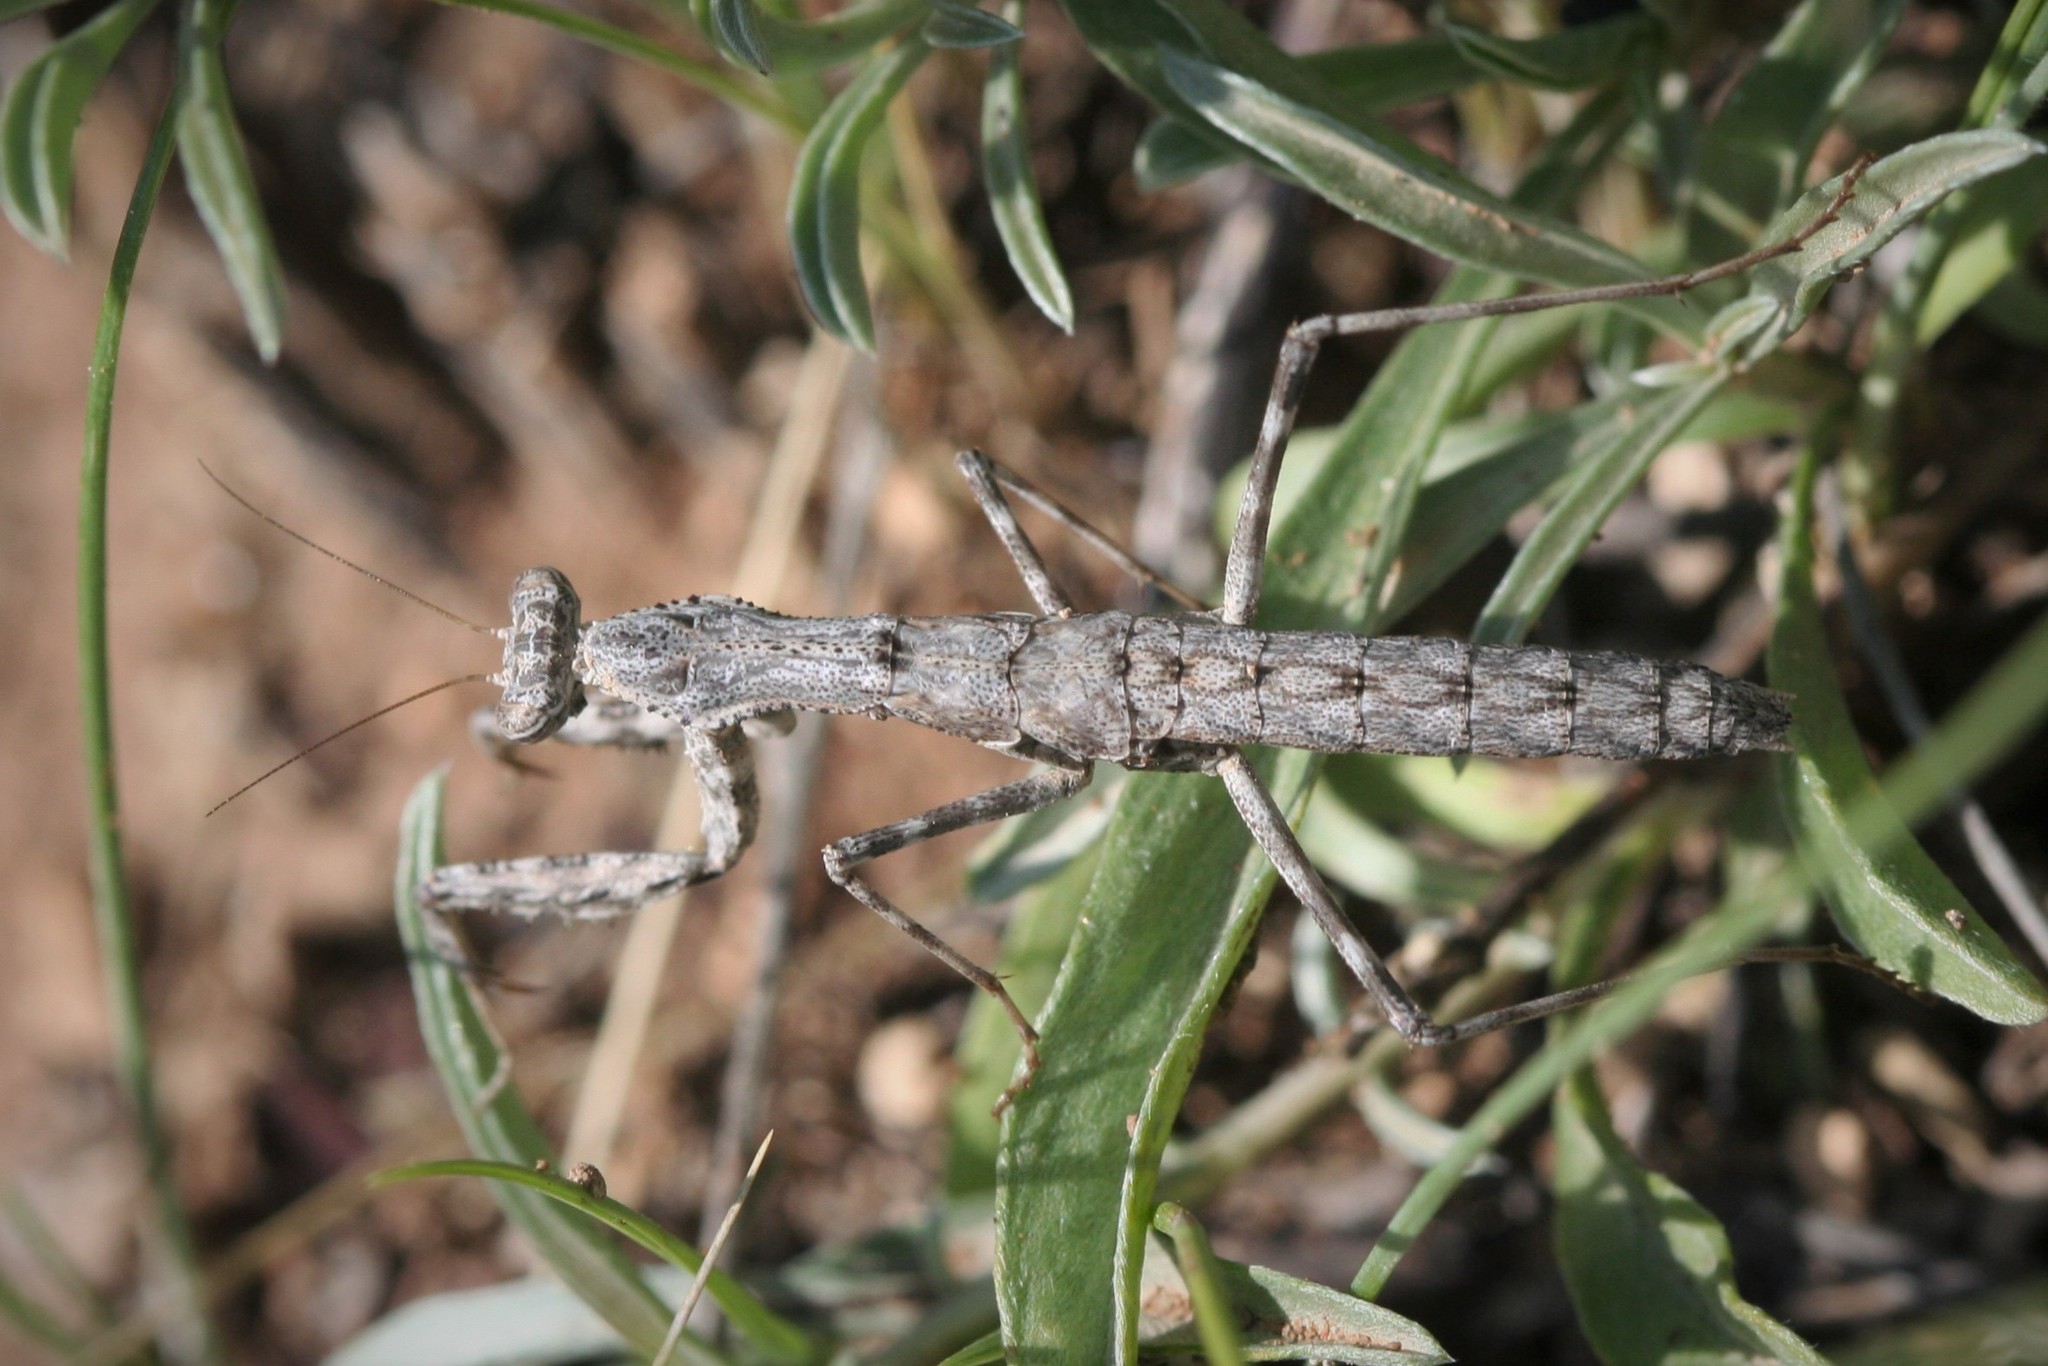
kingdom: Animalia
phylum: Arthropoda
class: Insecta
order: Mantodea
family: Rivetinidae
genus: Bolivaria
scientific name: Bolivaria brachyptera
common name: Bolivar's short winged mantis
